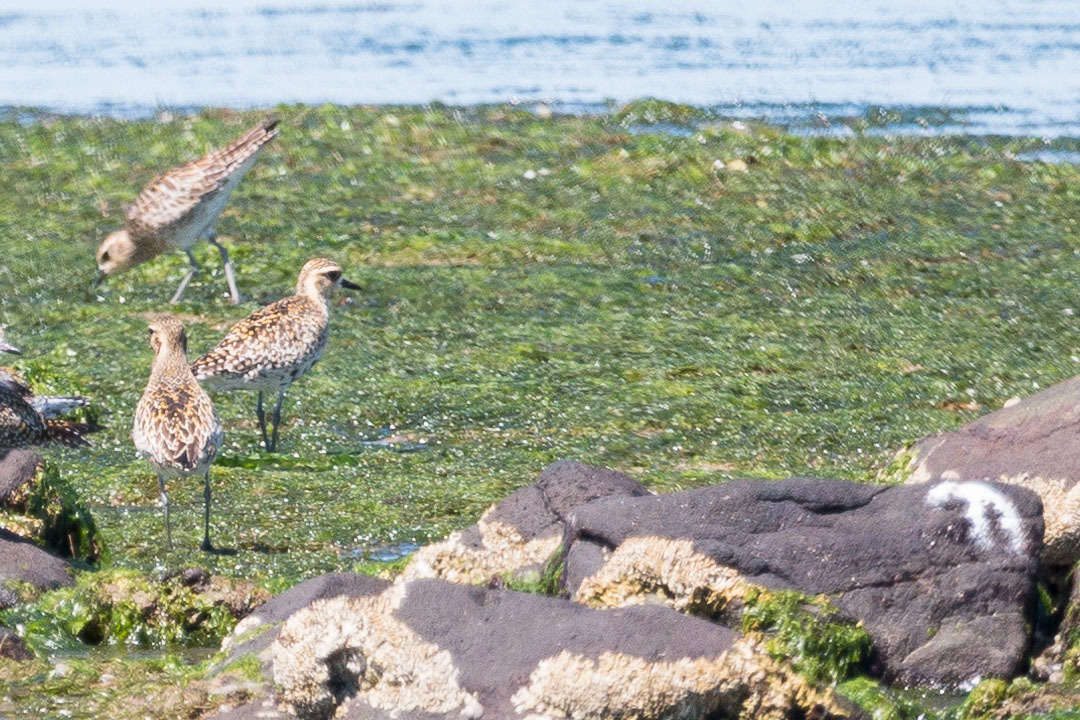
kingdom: Animalia
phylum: Chordata
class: Aves
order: Charadriiformes
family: Charadriidae
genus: Pluvialis
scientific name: Pluvialis fulva
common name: Pacific golden plover
